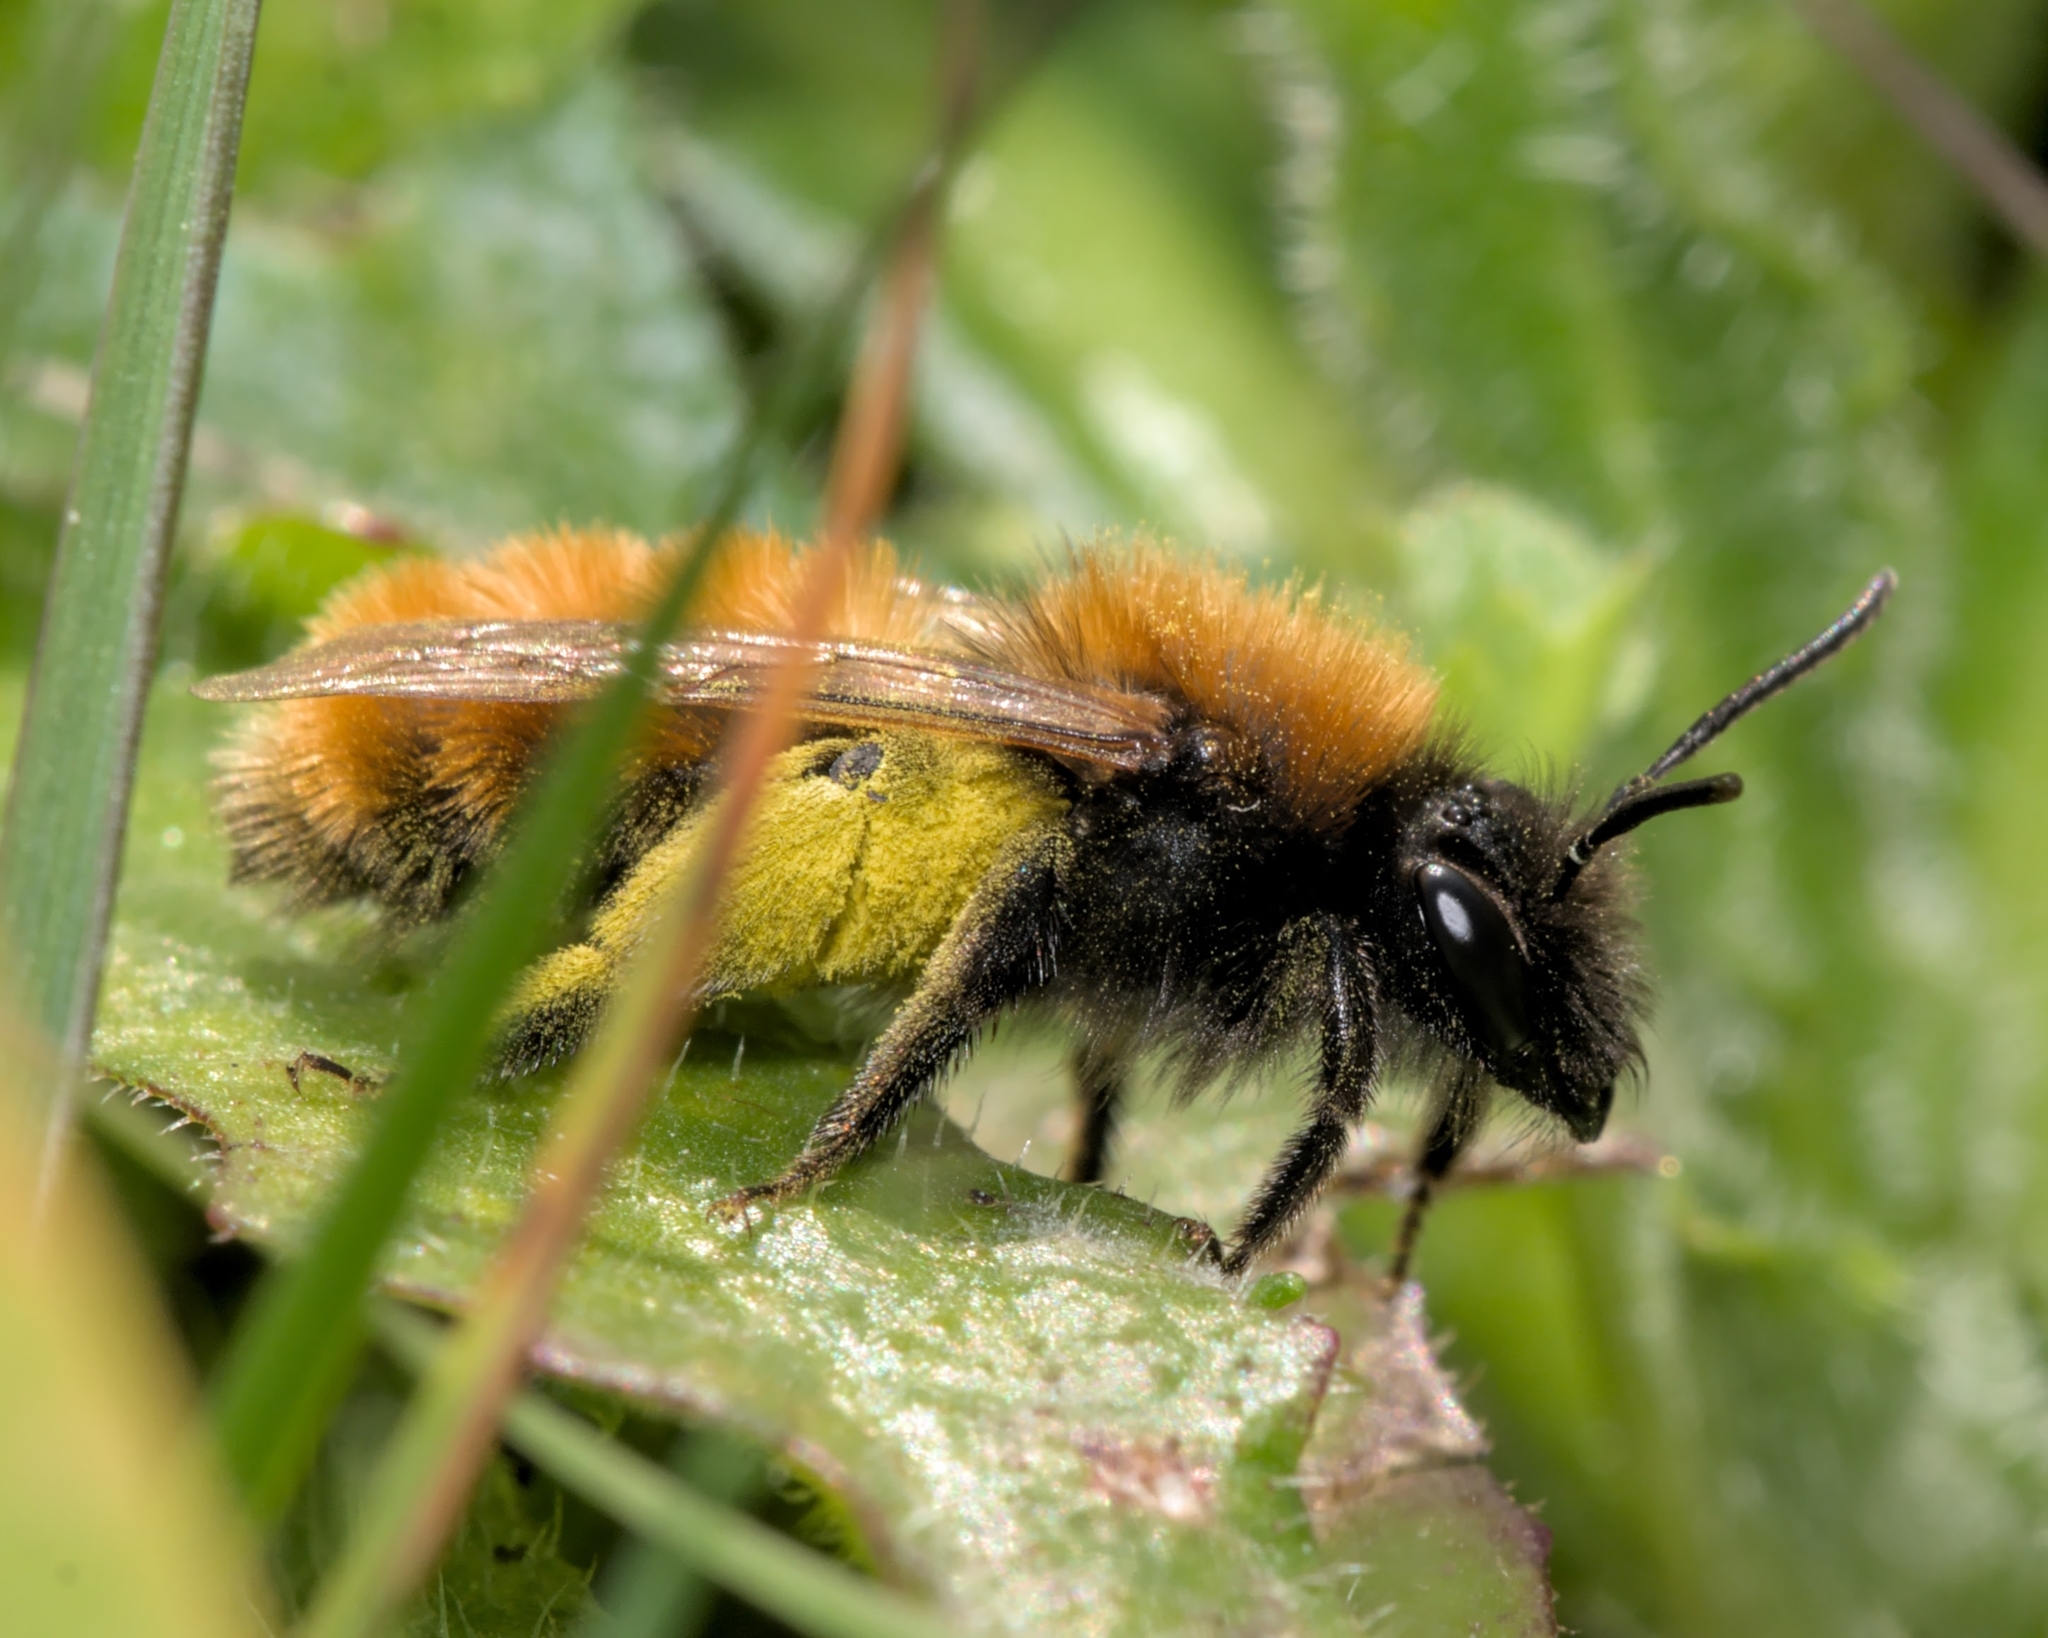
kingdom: Animalia
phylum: Arthropoda
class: Insecta
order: Hymenoptera
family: Andrenidae
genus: Andrena
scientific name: Andrena fulva
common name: Tawny mining bee
